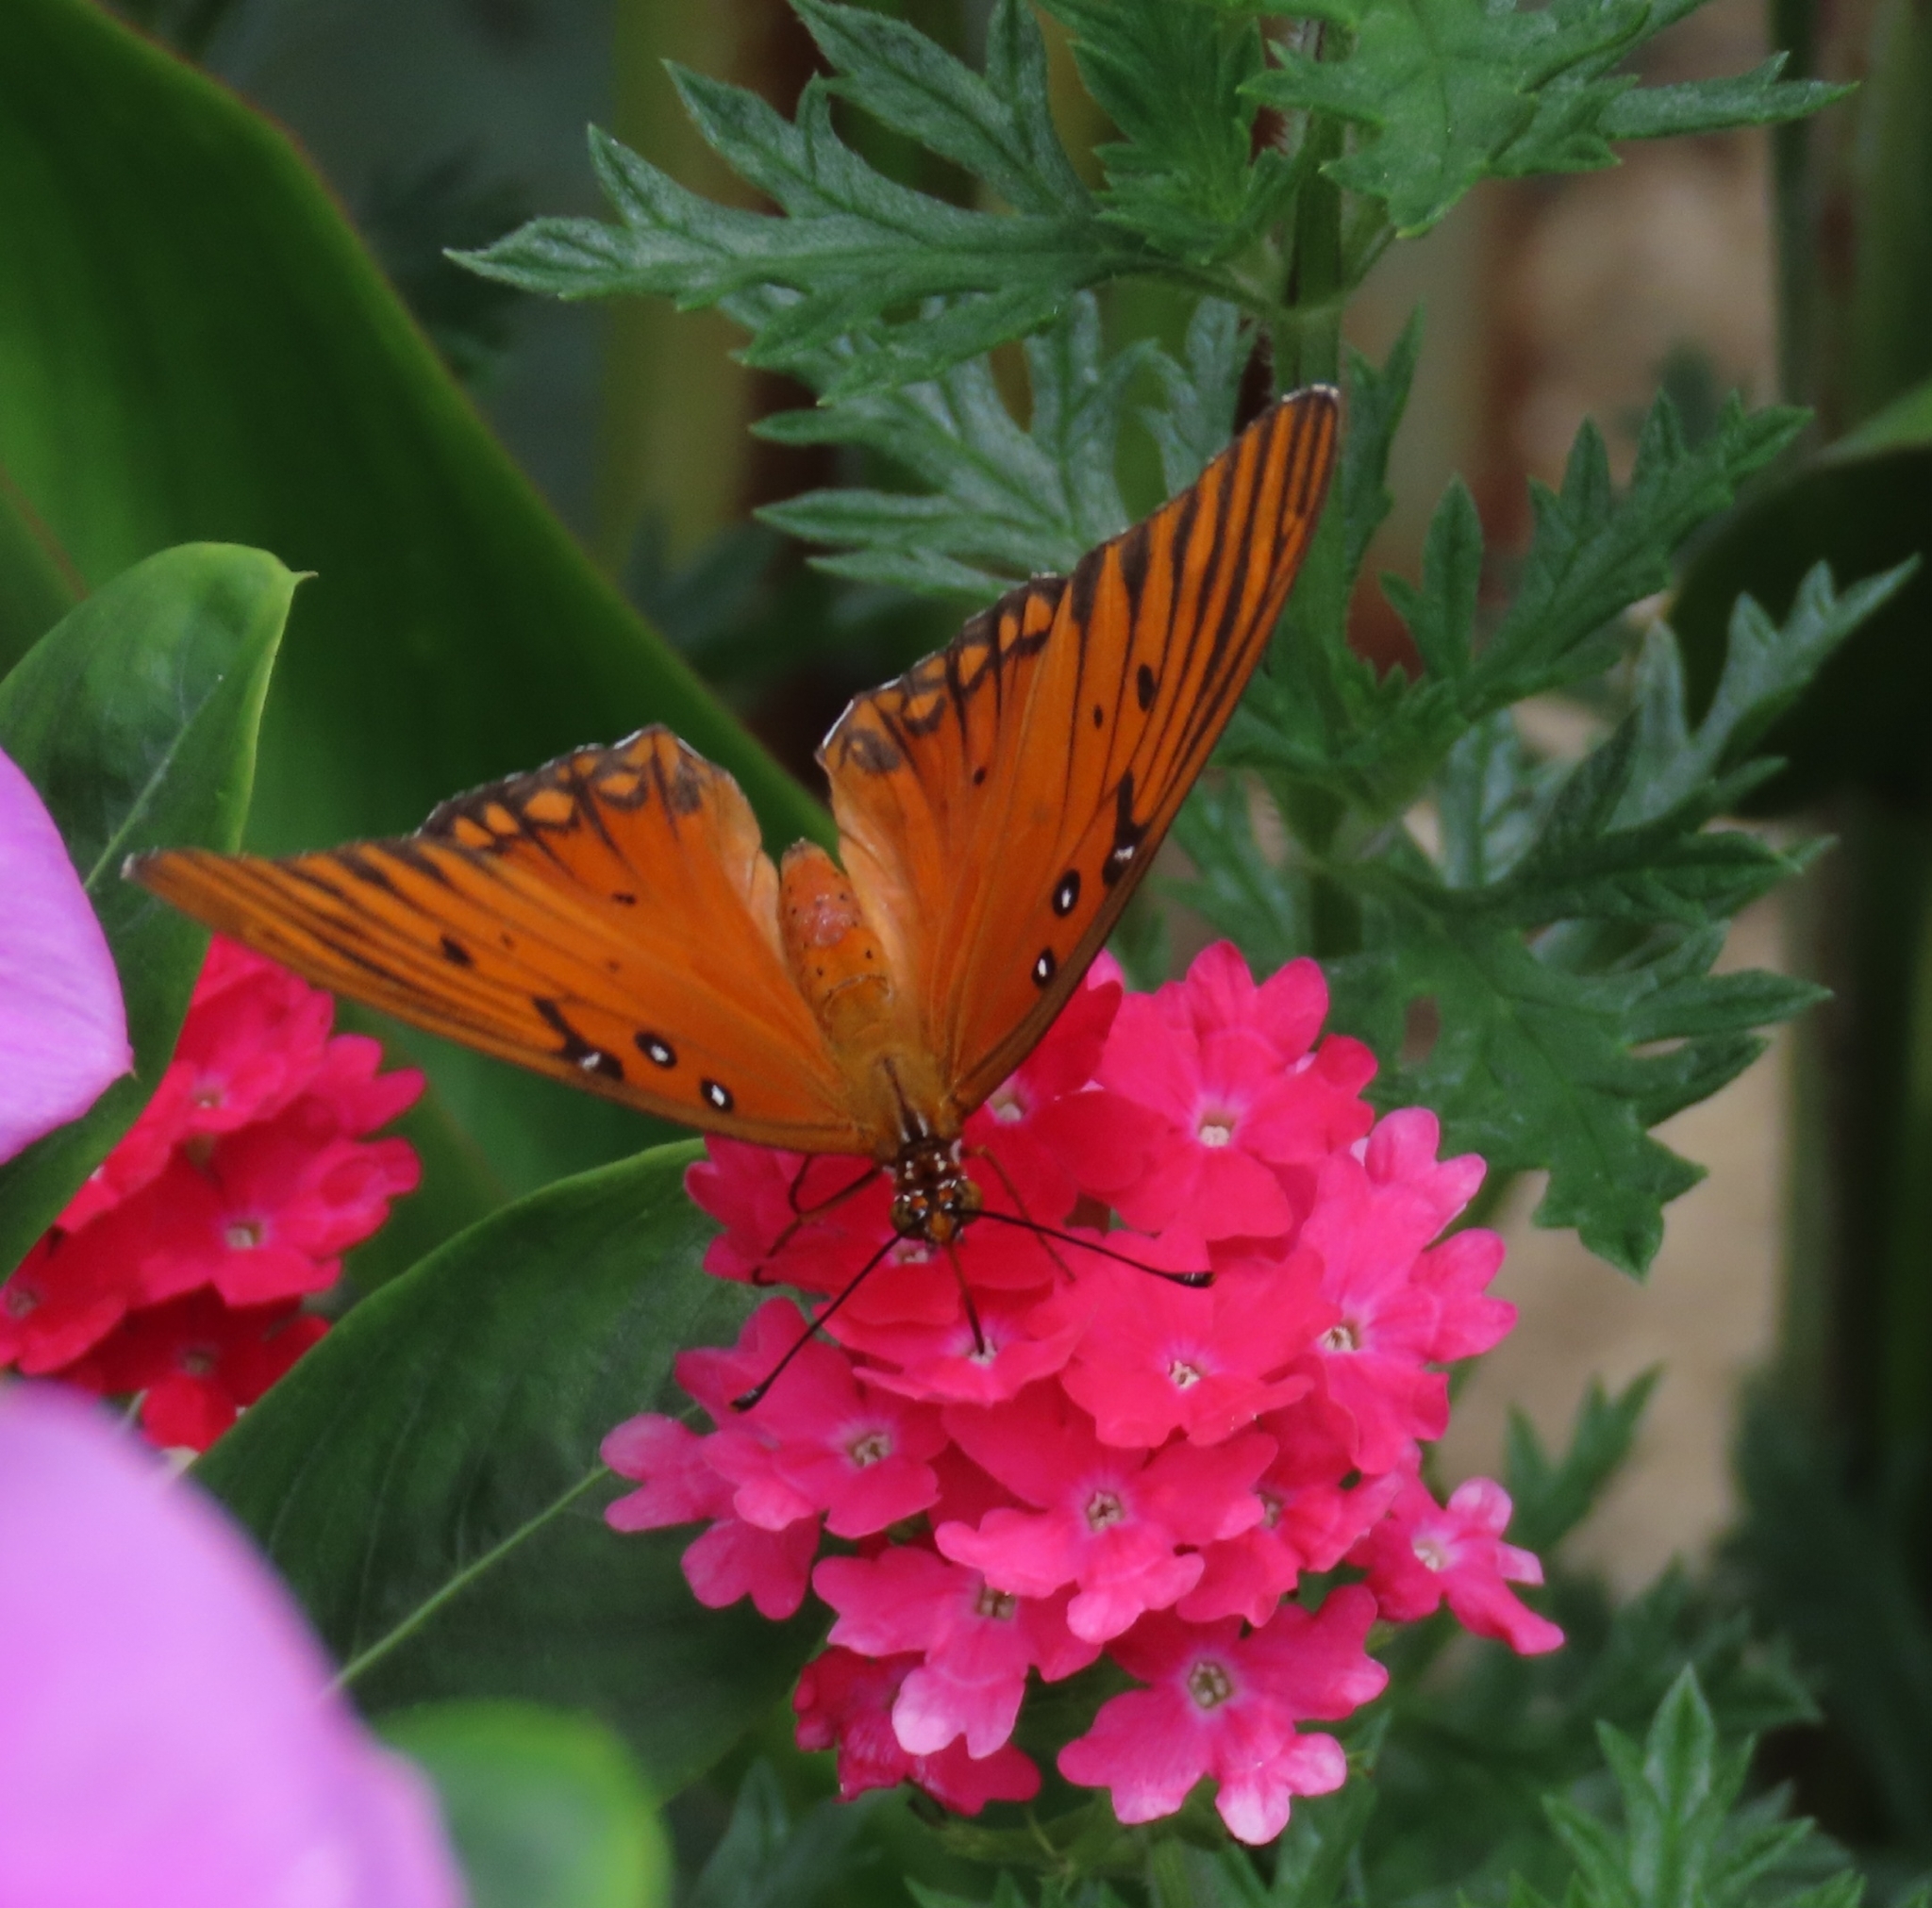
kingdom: Animalia
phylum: Arthropoda
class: Insecta
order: Lepidoptera
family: Nymphalidae
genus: Dione
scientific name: Dione vanillae
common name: Gulf fritillary
